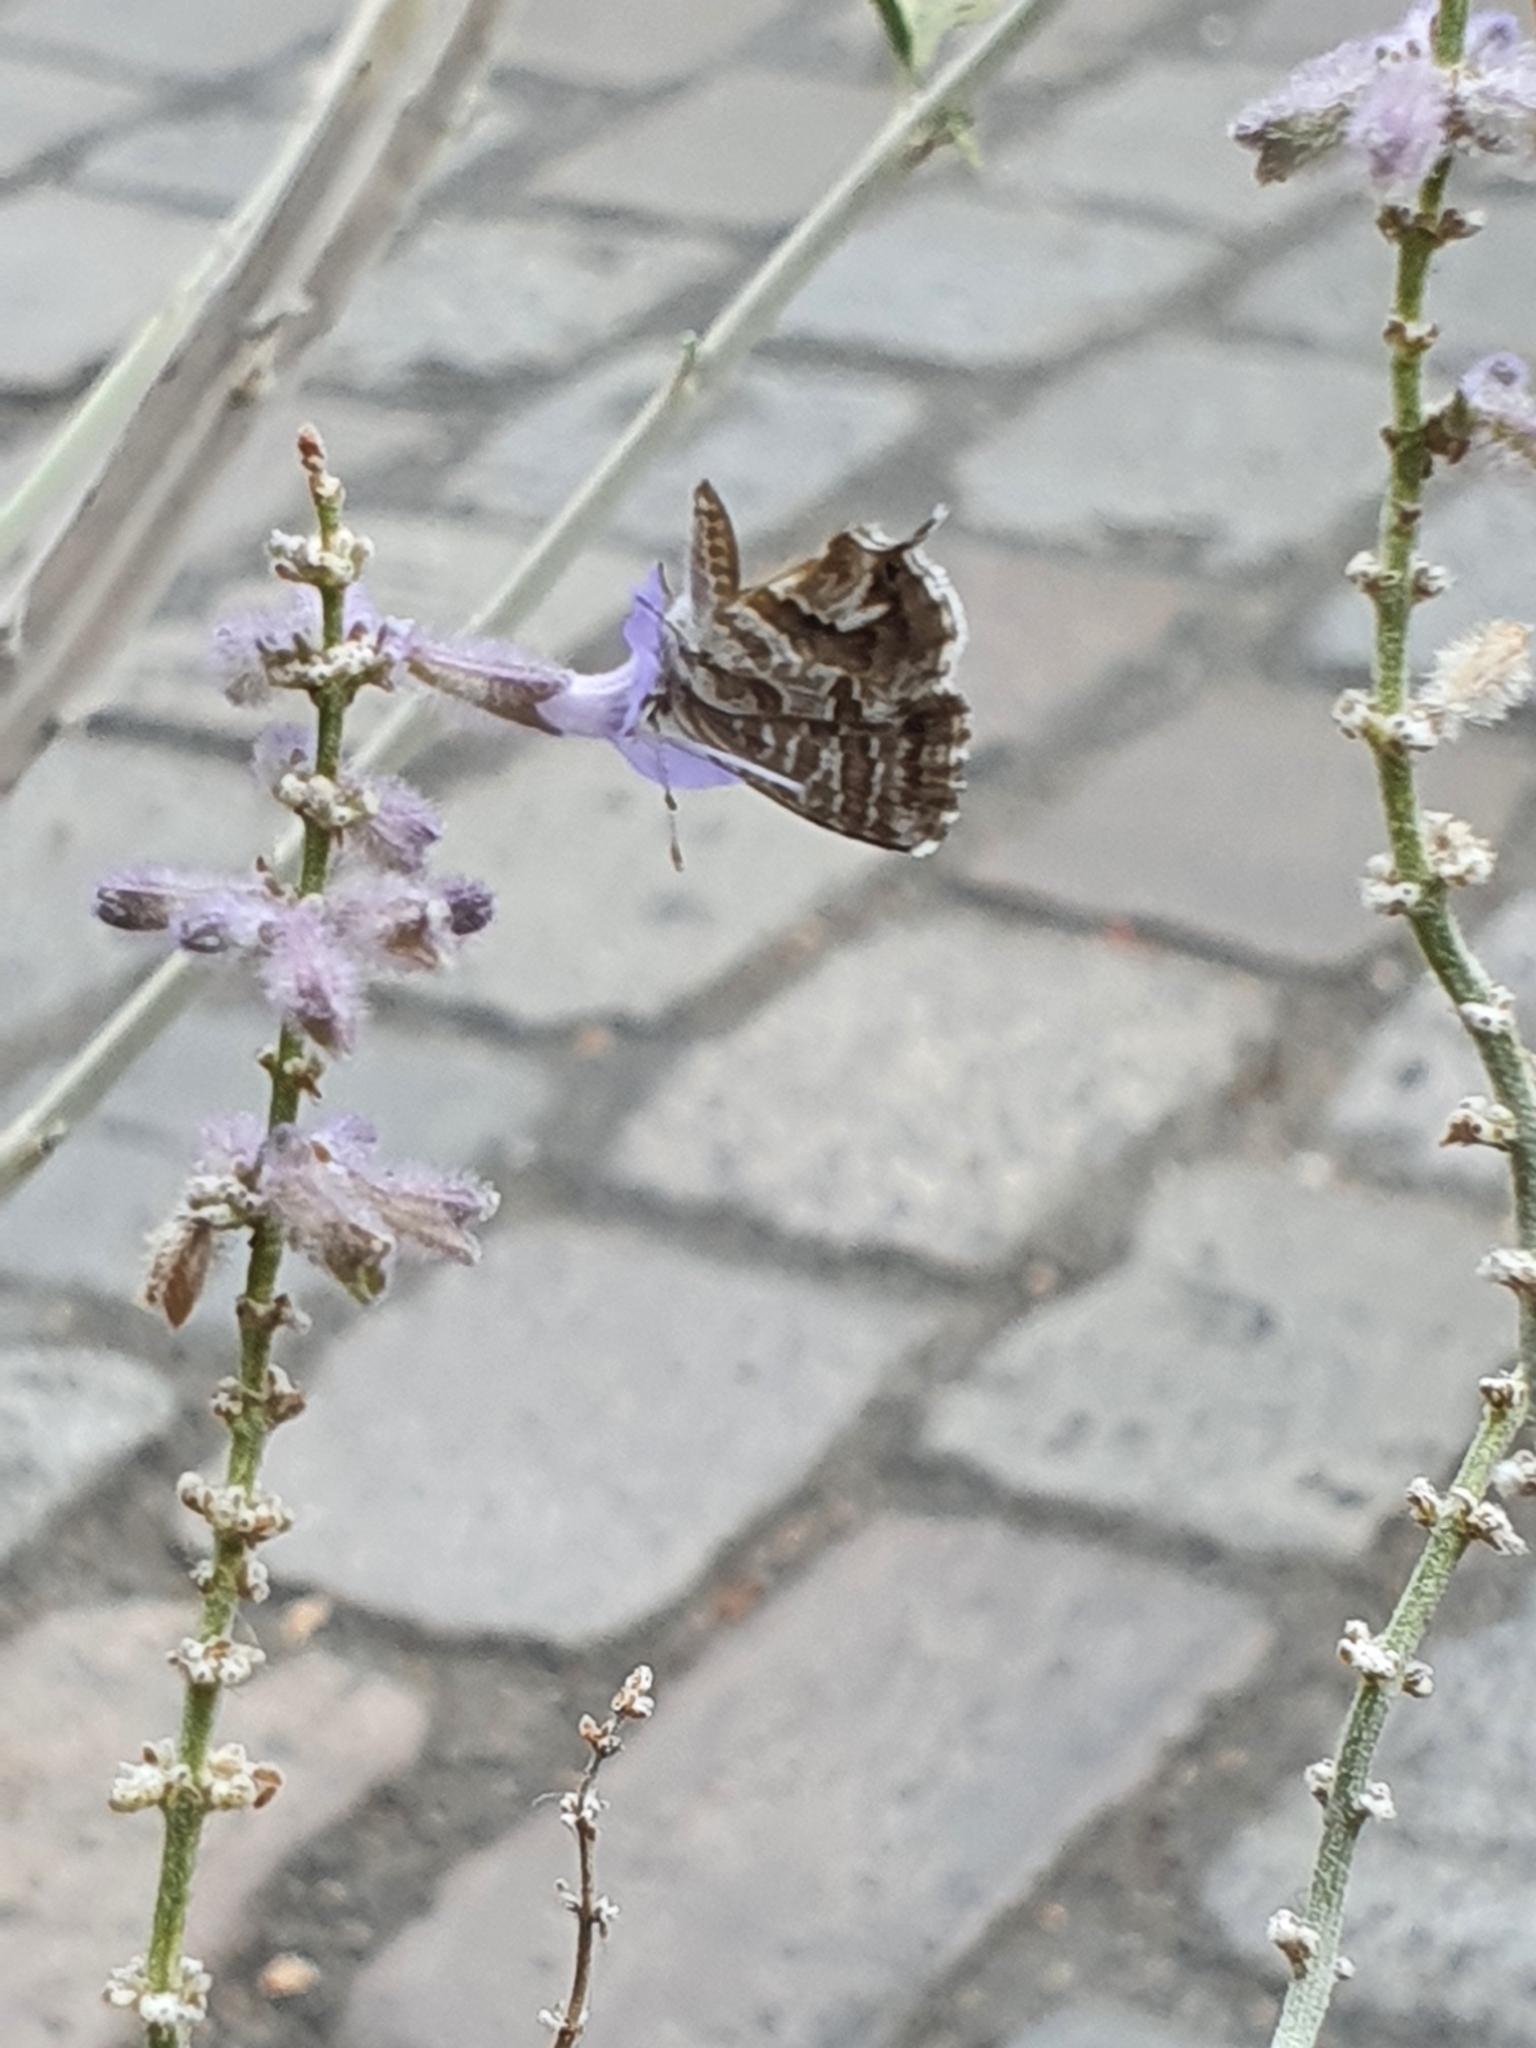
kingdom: Animalia
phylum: Arthropoda
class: Insecta
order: Lepidoptera
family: Lycaenidae
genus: Cacyreus
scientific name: Cacyreus marshalli
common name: Geranium bronze
